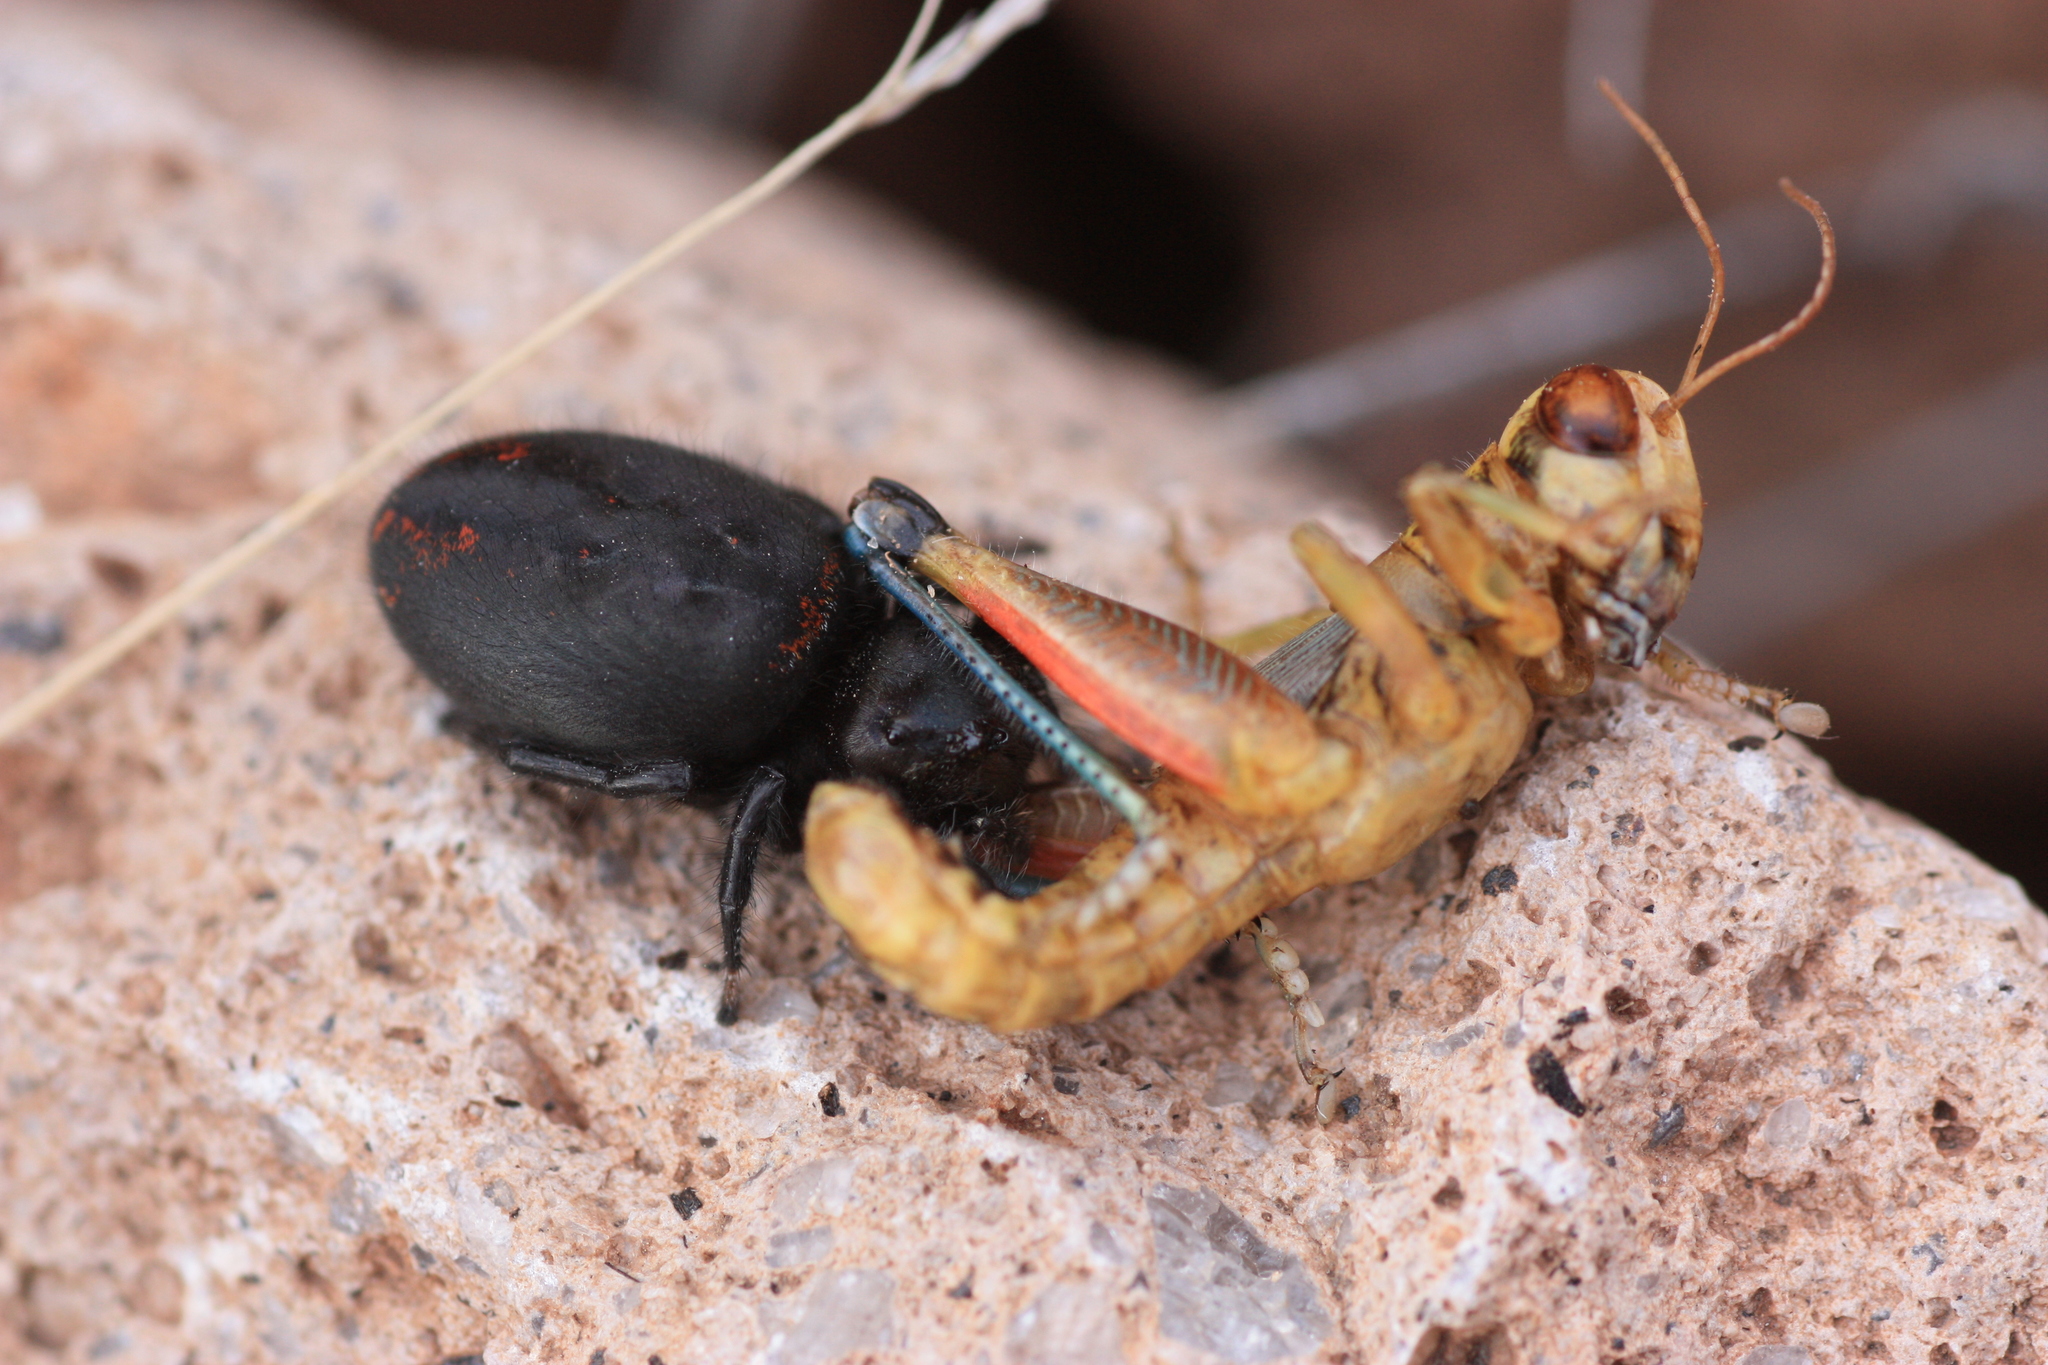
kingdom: Animalia
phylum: Arthropoda
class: Arachnida
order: Araneae
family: Salticidae
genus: Phidippus
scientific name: Phidippus carneus
